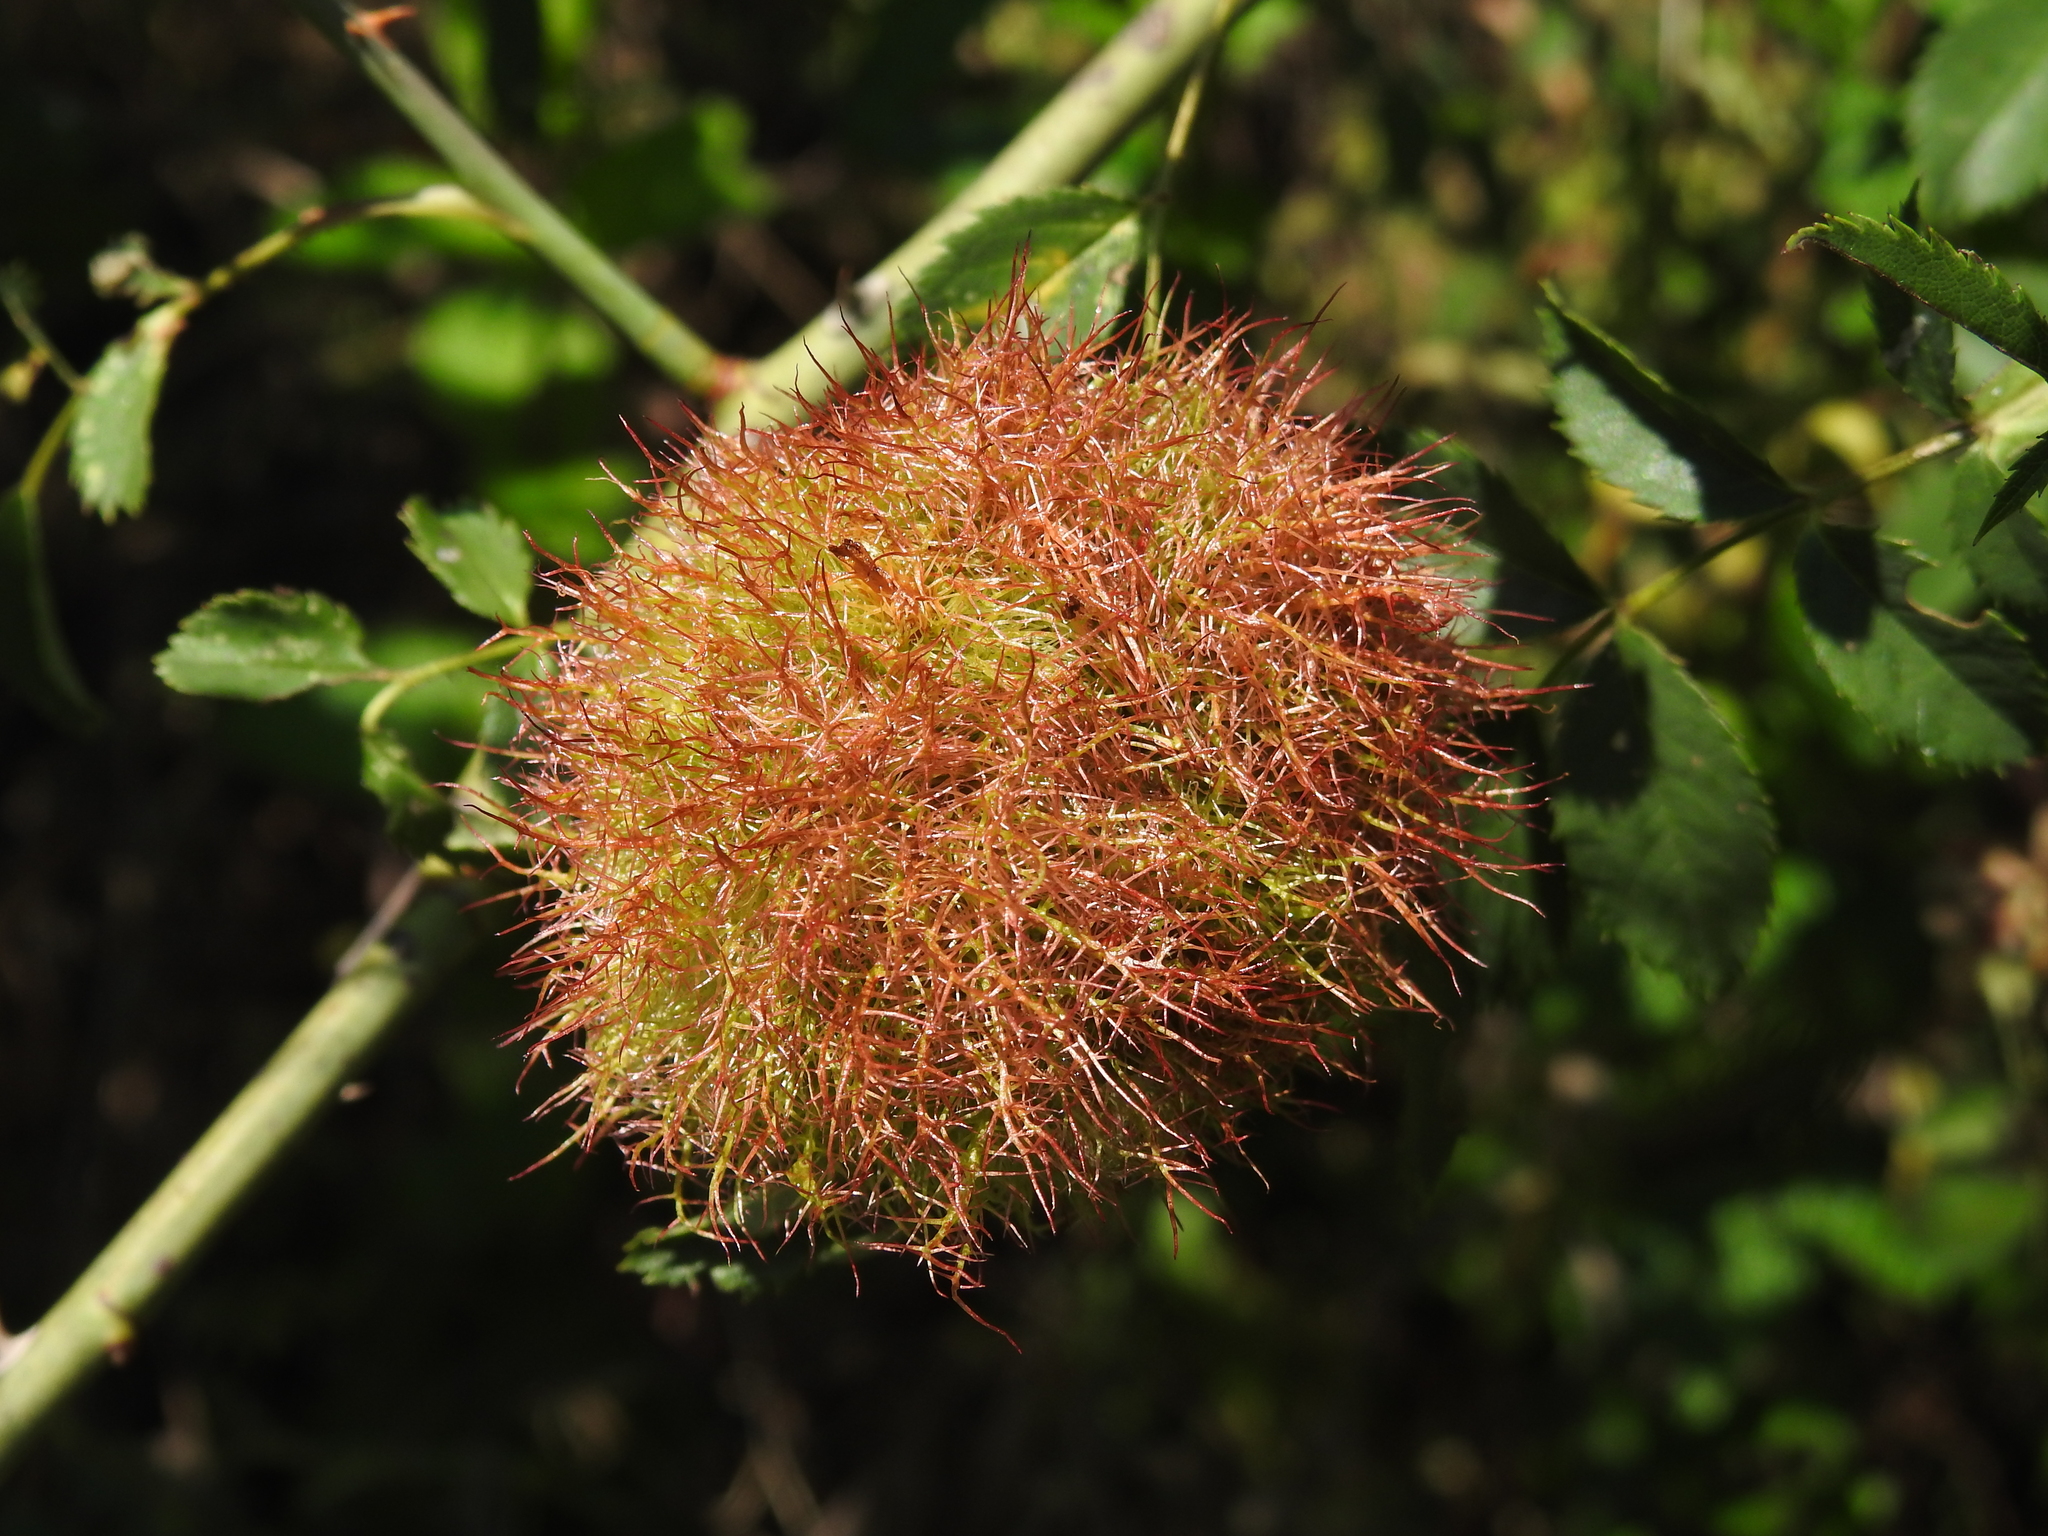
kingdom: Animalia
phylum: Arthropoda
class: Insecta
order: Hymenoptera
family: Cynipidae
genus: Diplolepis
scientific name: Diplolepis rosae
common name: Bedeguar gall
